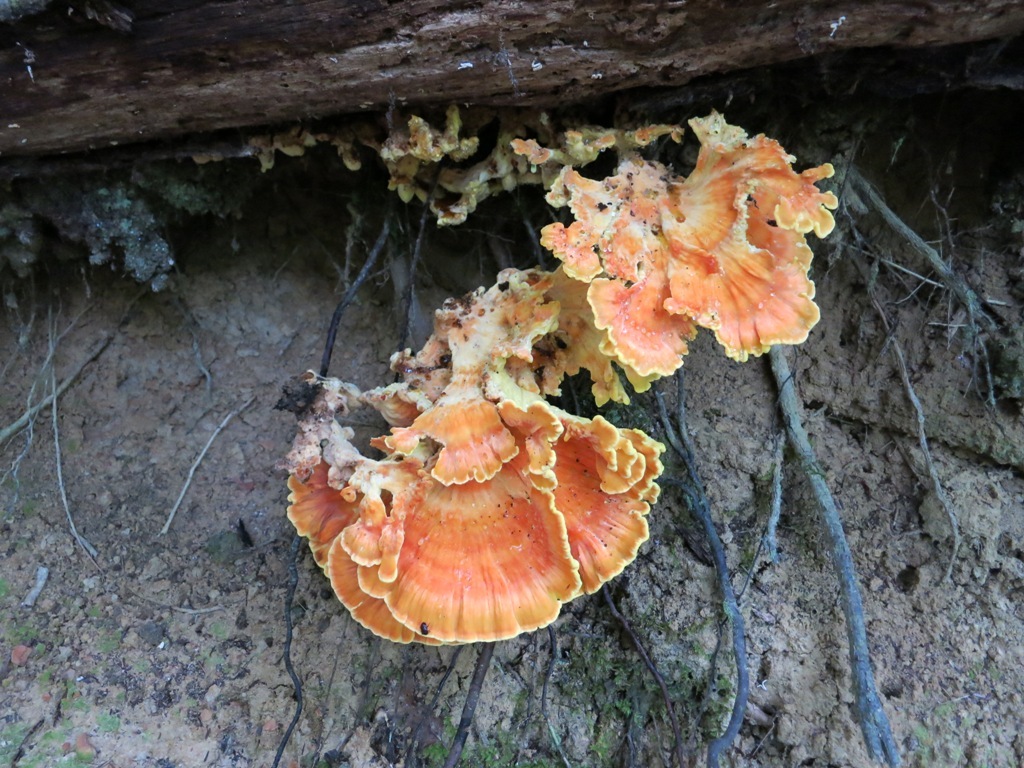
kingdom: Fungi
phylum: Basidiomycota
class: Agaricomycetes
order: Polyporales
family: Laetiporaceae
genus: Laetiporus
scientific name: Laetiporus sulphureus
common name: Chicken of the woods
